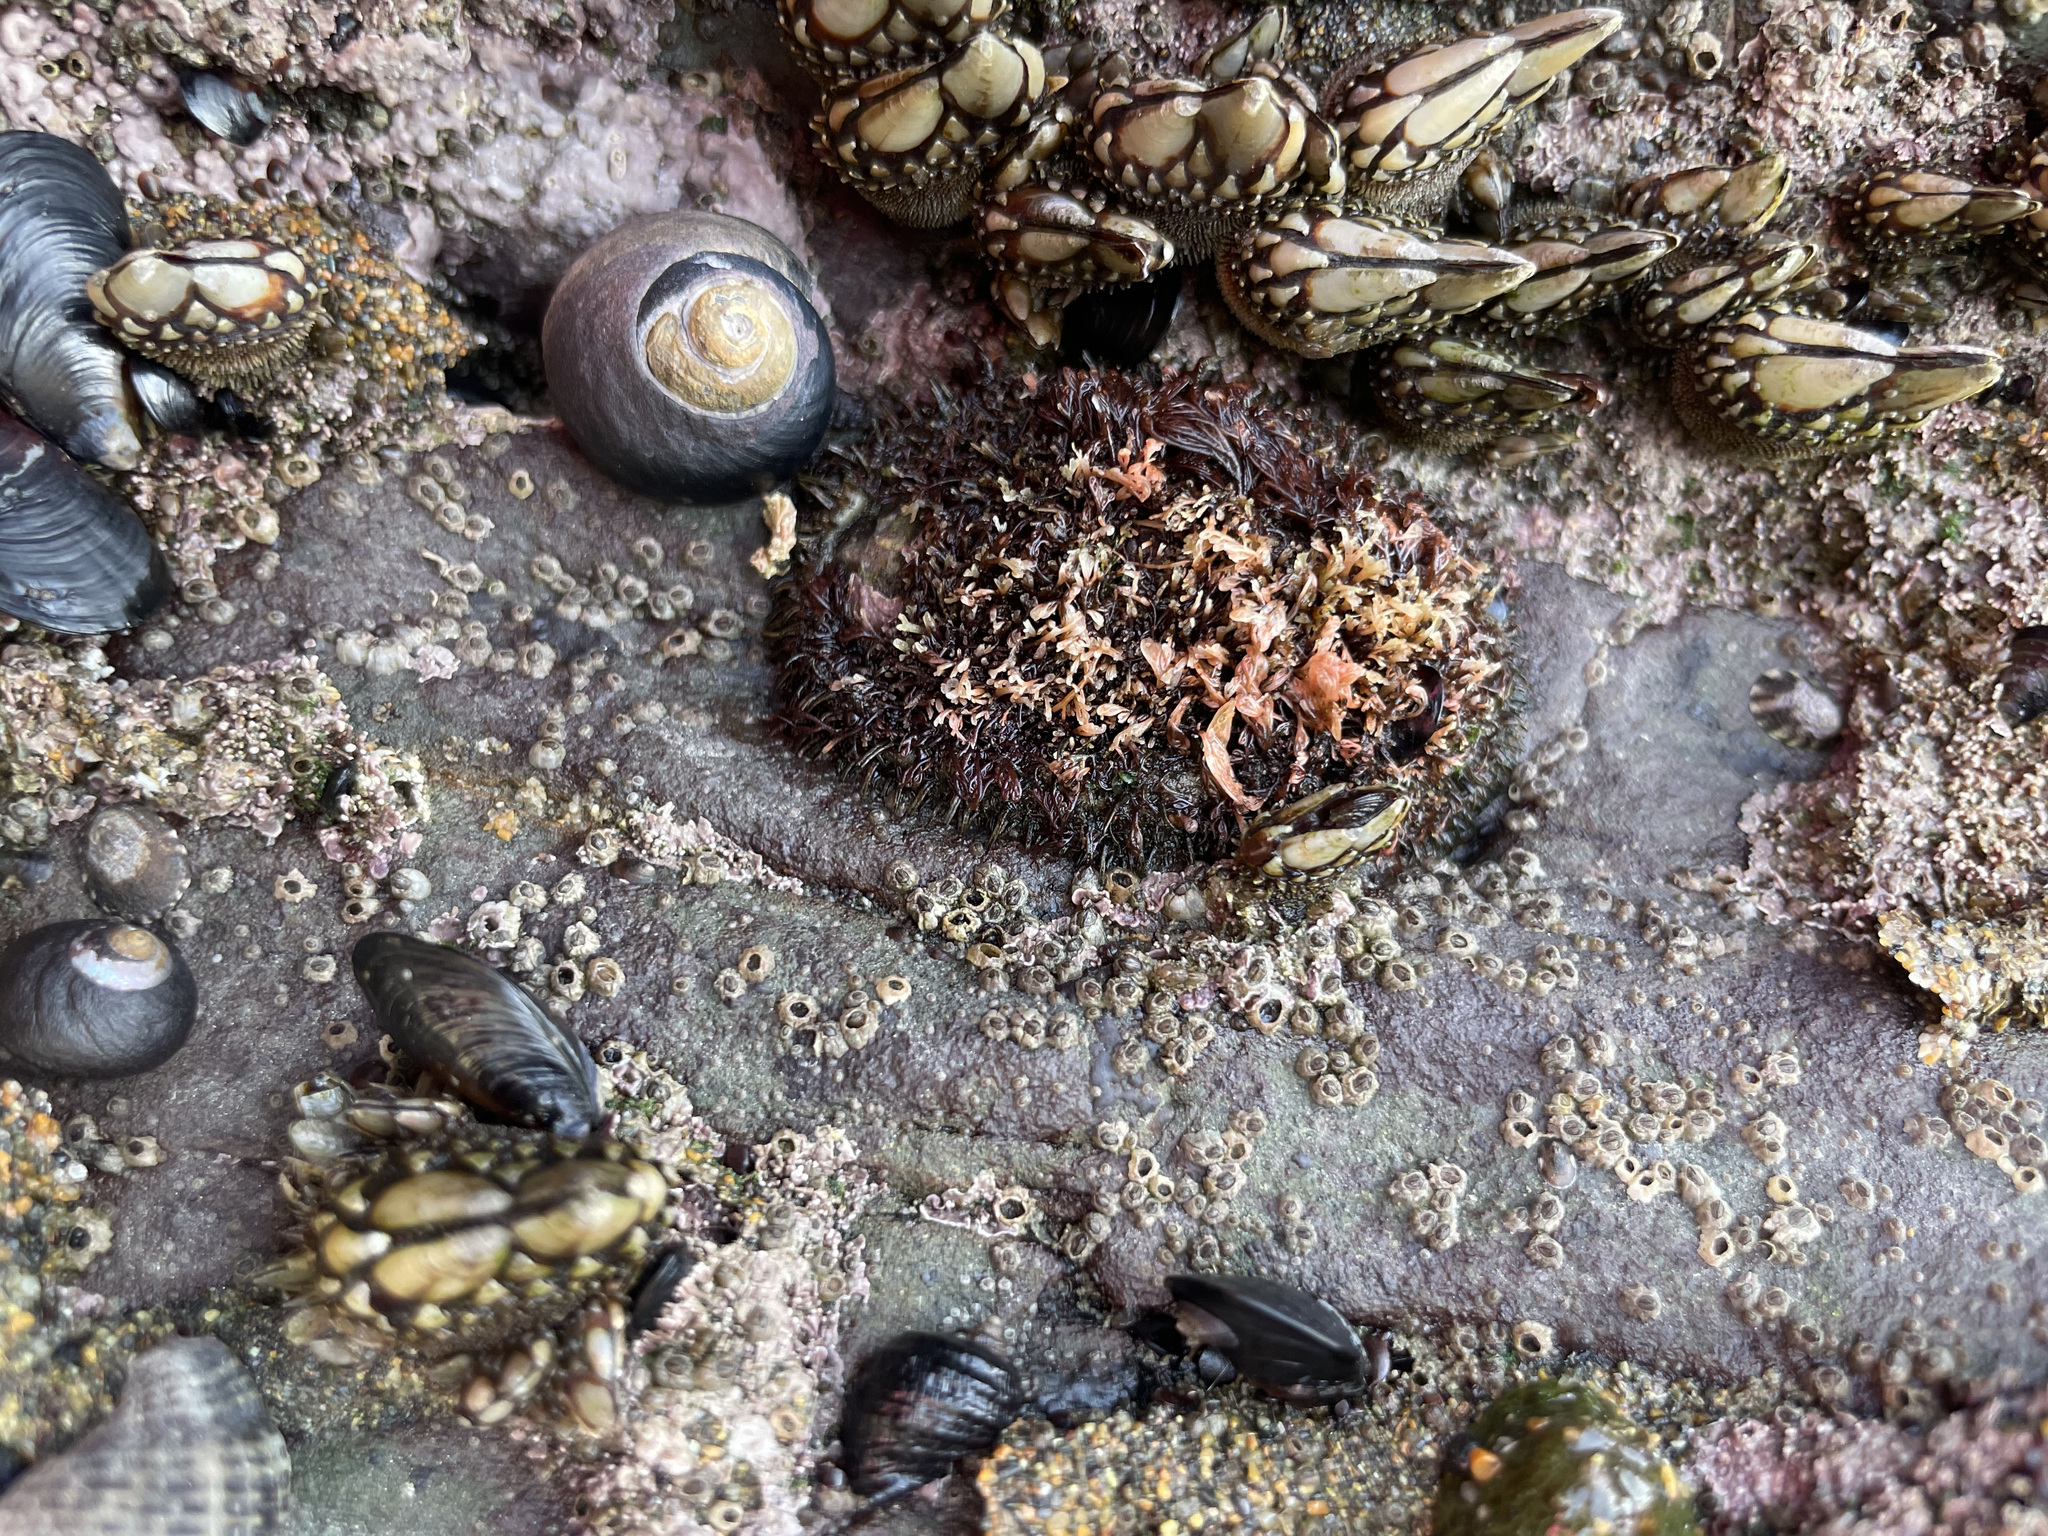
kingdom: Animalia
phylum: Mollusca
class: Polyplacophora
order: Chitonida
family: Mopaliidae
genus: Mopalia
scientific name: Mopalia muscosa
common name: Mossy chiton
